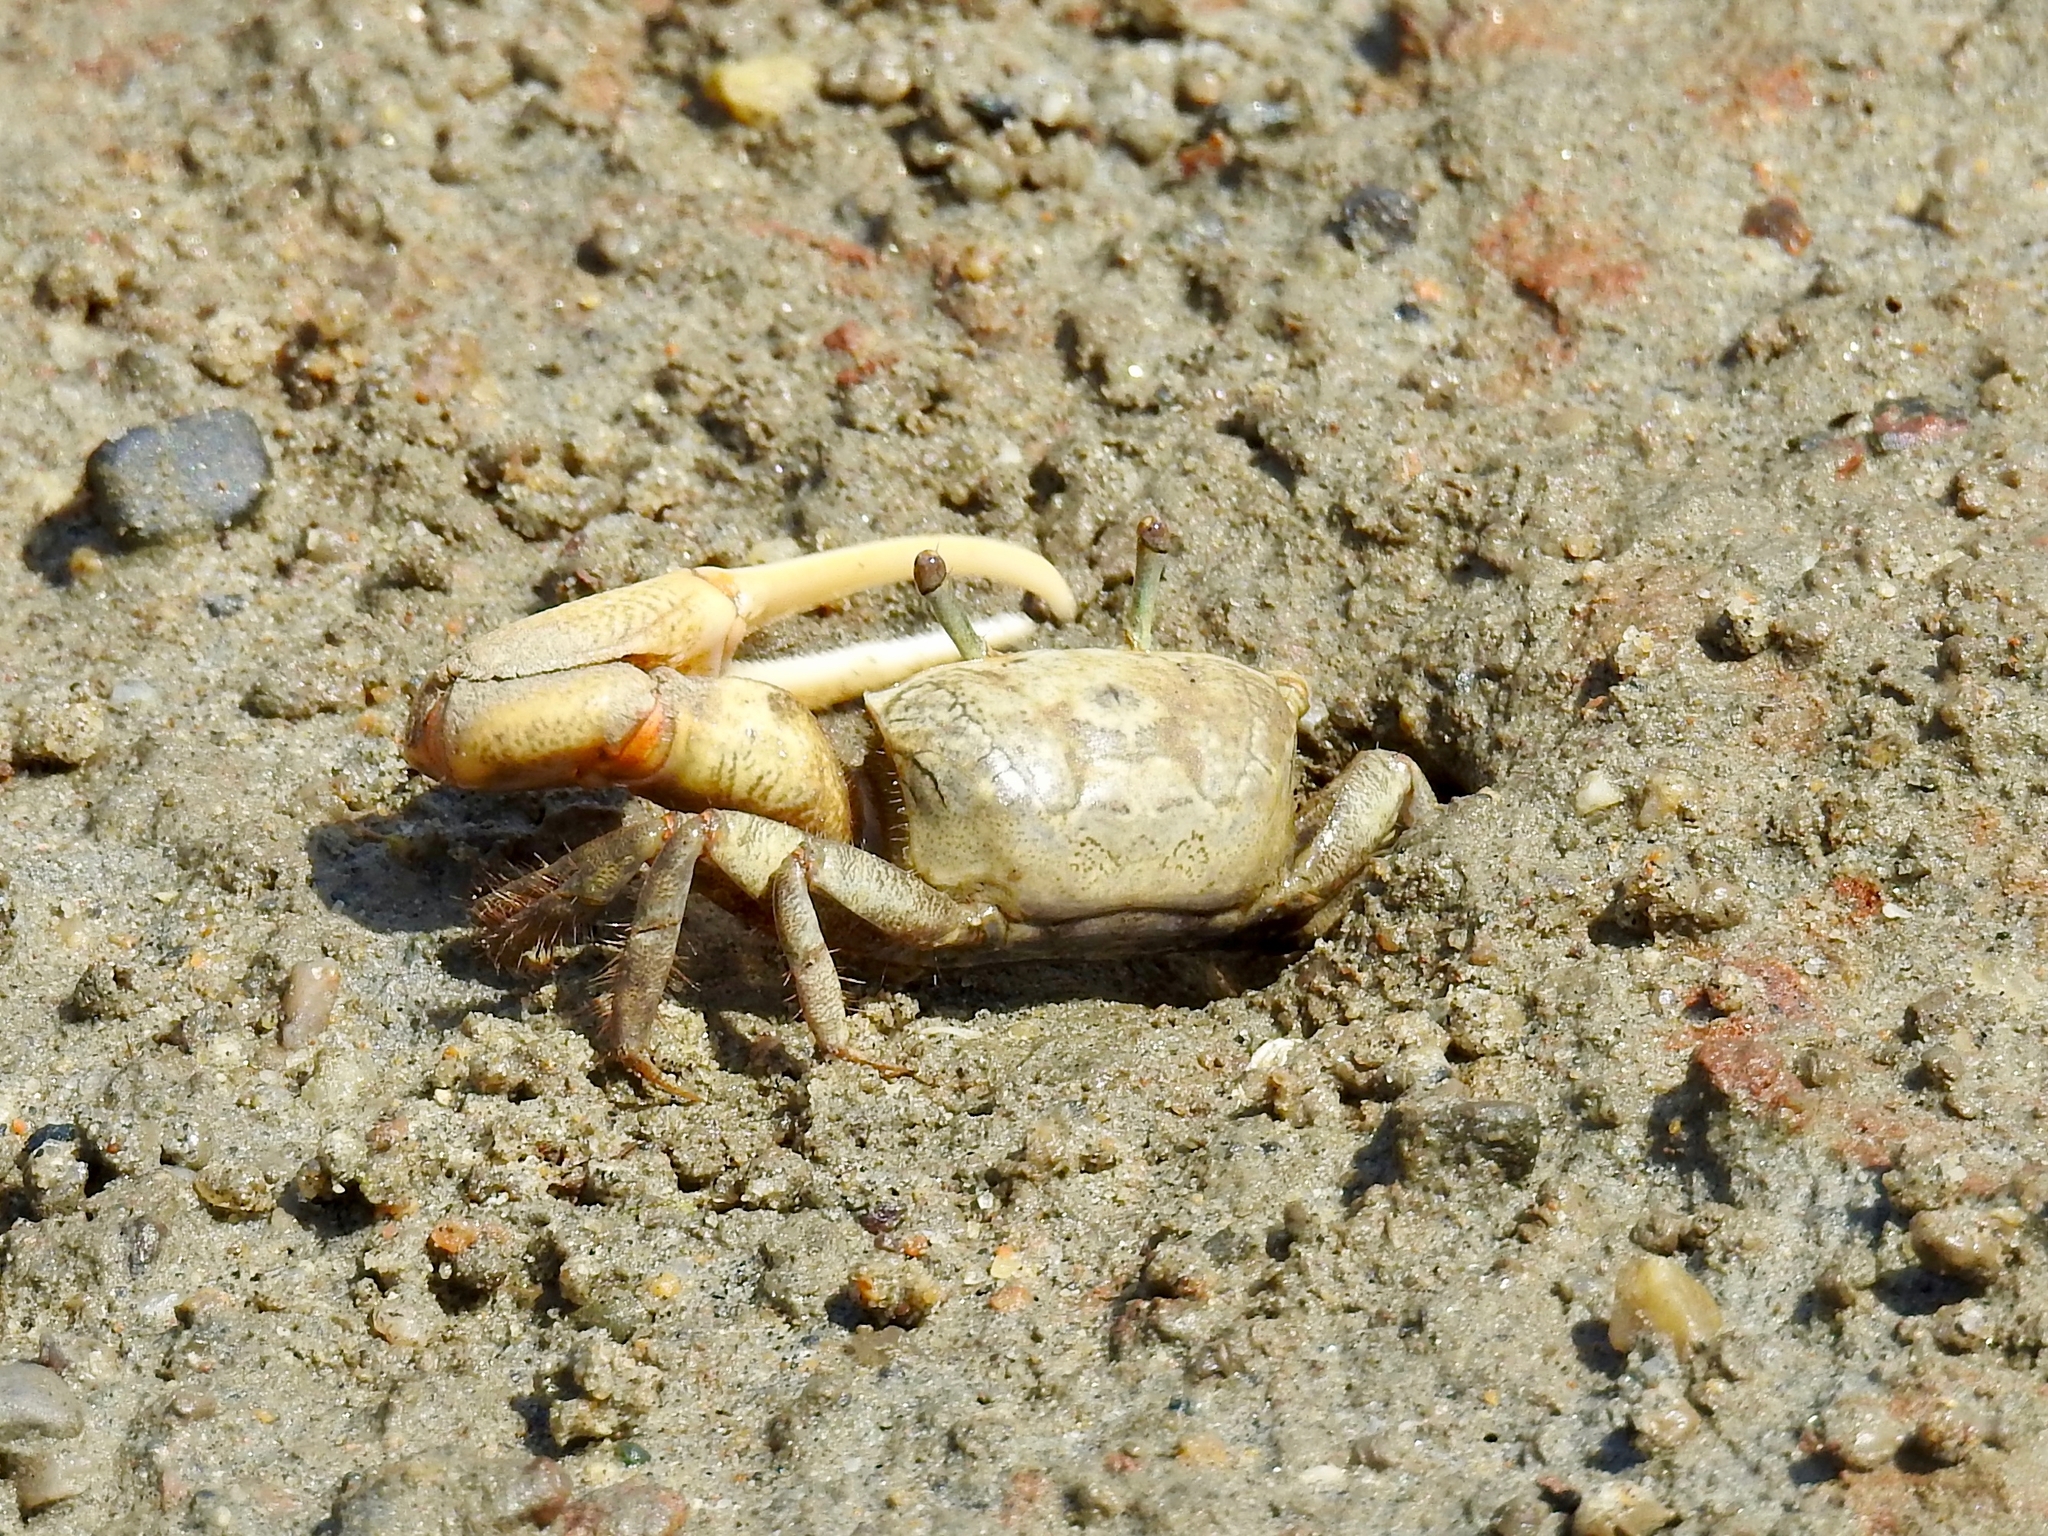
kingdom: Animalia
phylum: Arthropoda
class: Malacostraca
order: Decapoda
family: Ocypodidae
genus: Leptuca
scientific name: Leptuca crenulata
